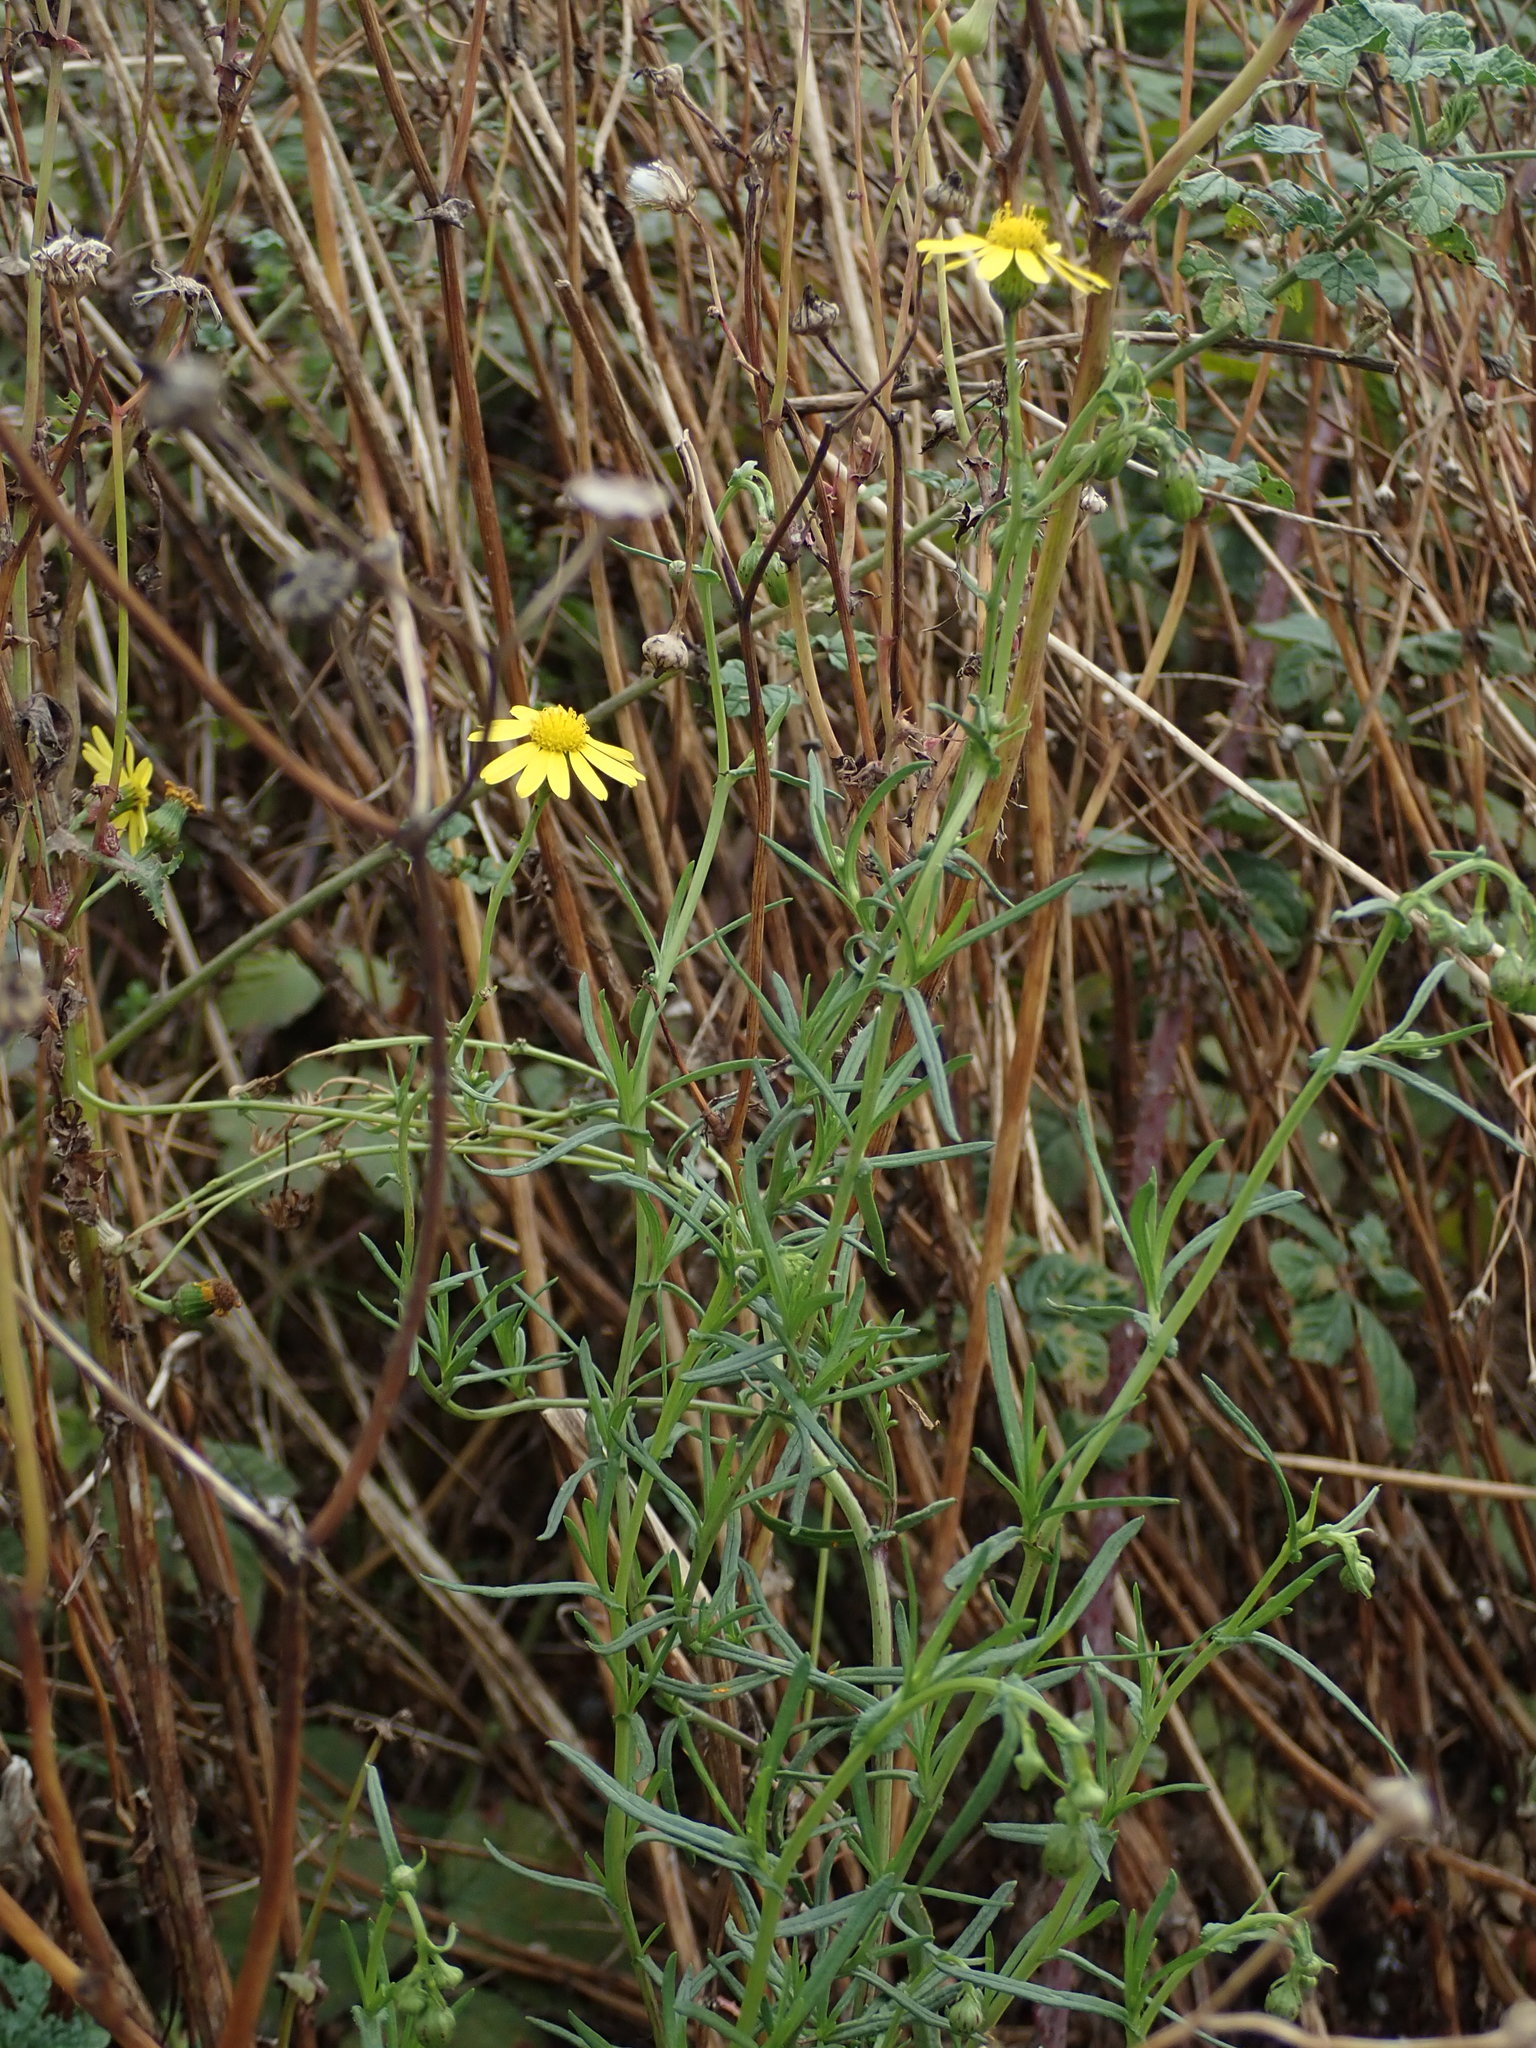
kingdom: Plantae
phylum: Tracheophyta
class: Magnoliopsida
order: Asterales
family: Asteraceae
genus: Senecio
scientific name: Senecio inaequidens
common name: Narrow-leaved ragwort
